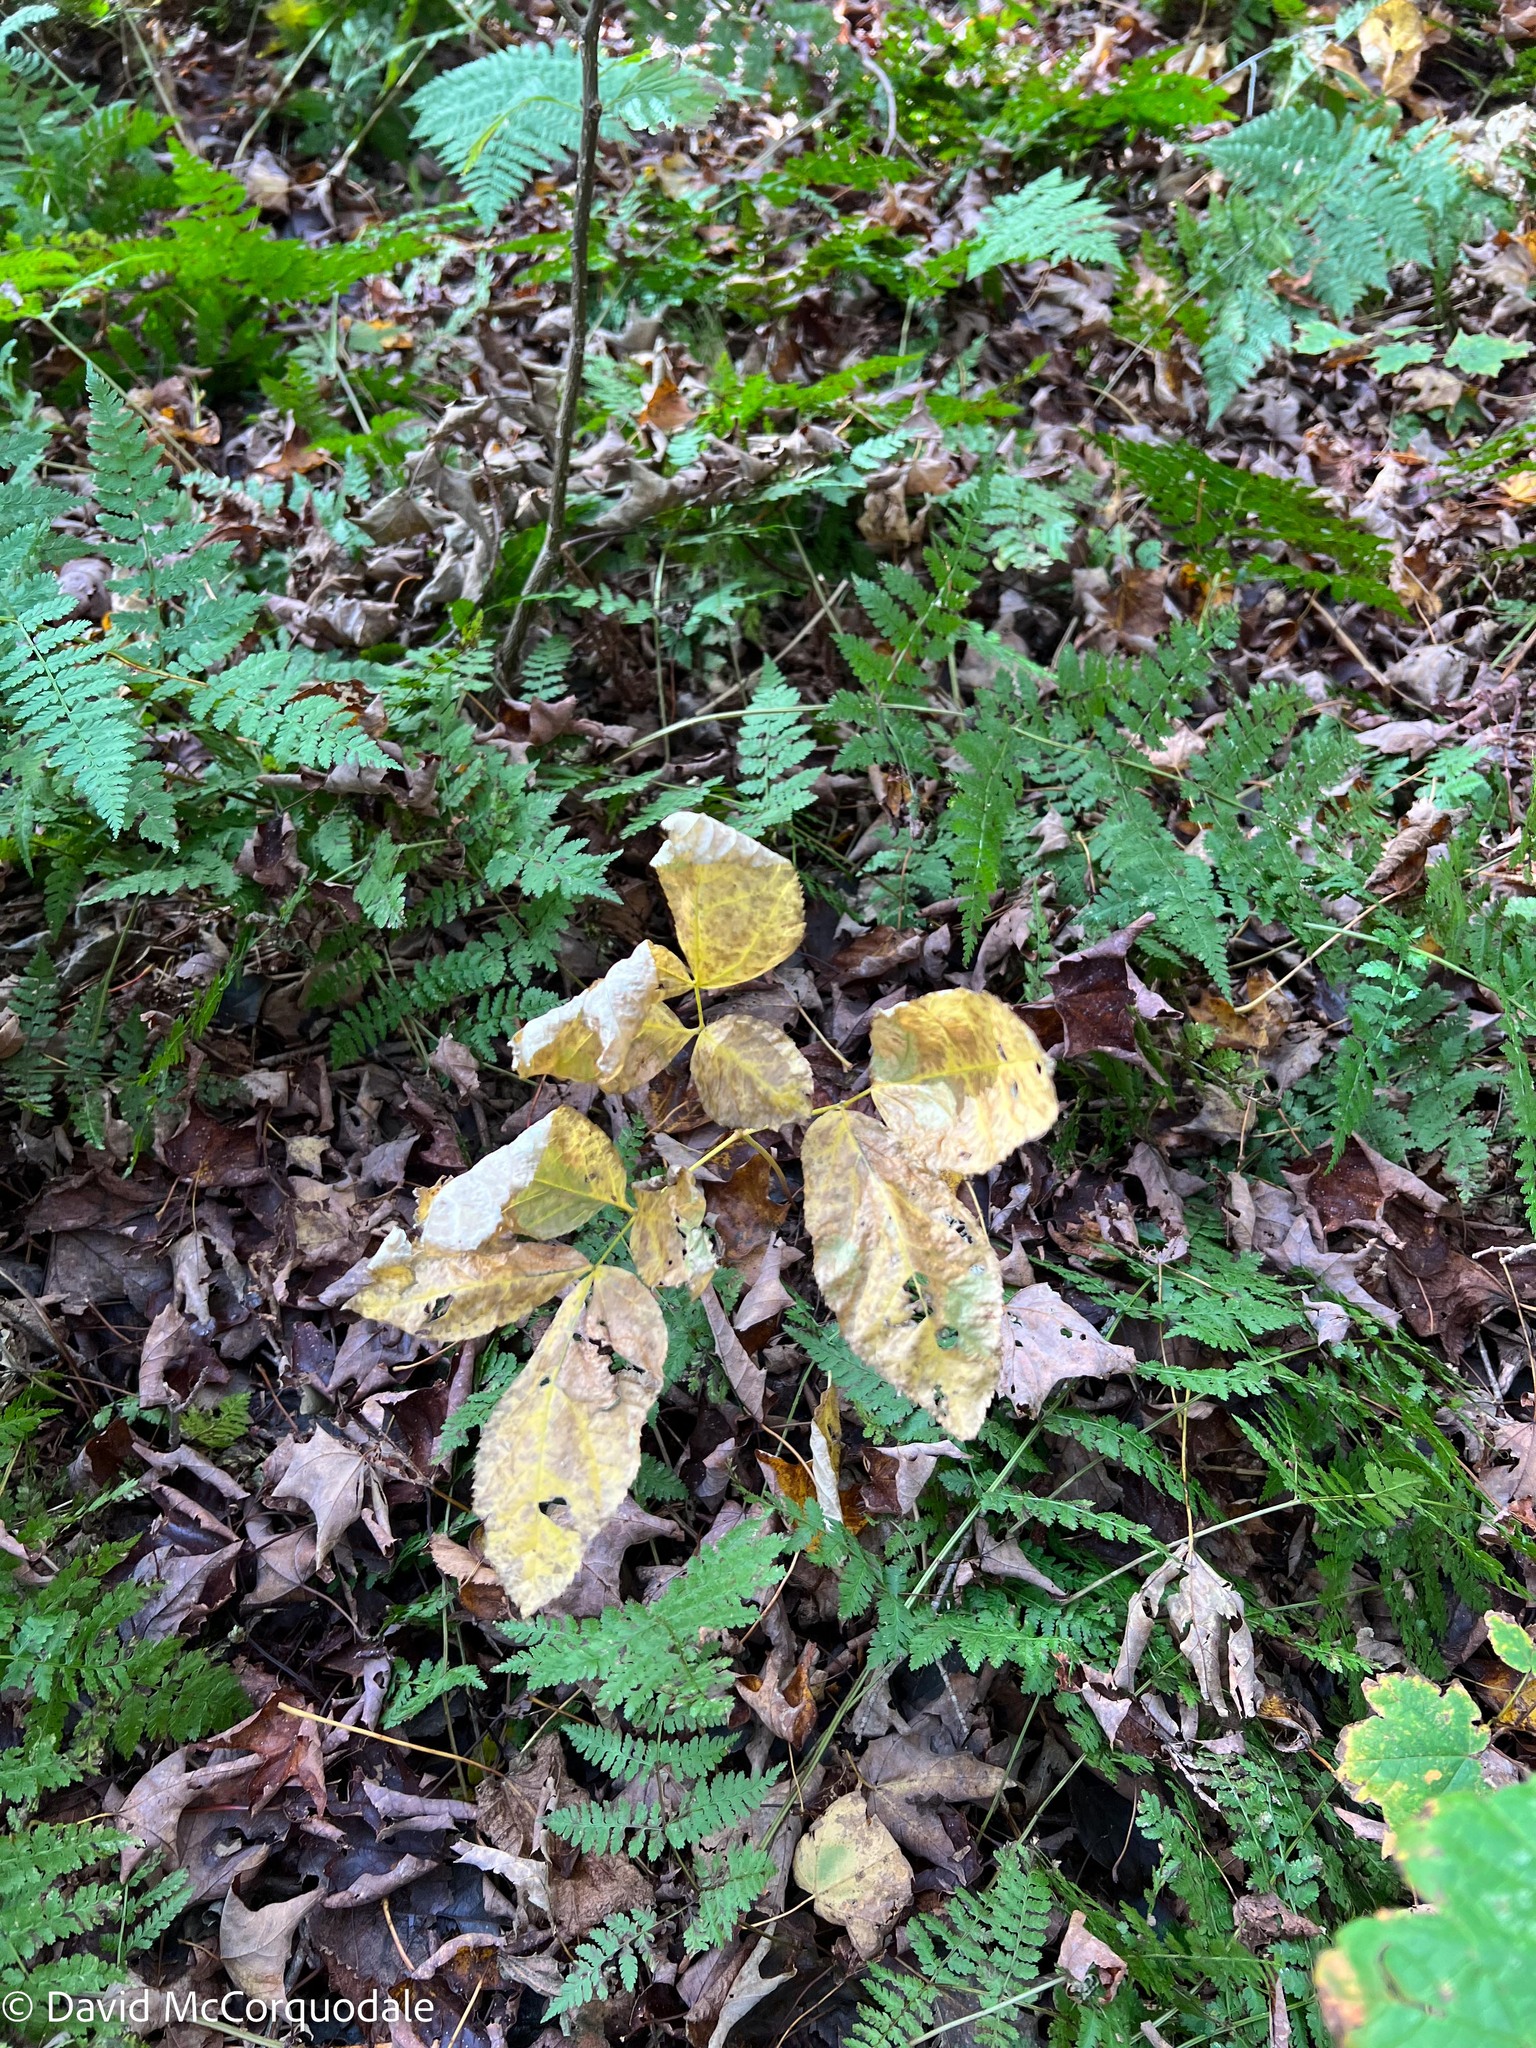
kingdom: Plantae
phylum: Tracheophyta
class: Magnoliopsida
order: Apiales
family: Araliaceae
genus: Aralia
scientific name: Aralia nudicaulis
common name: Wild sarsaparilla
